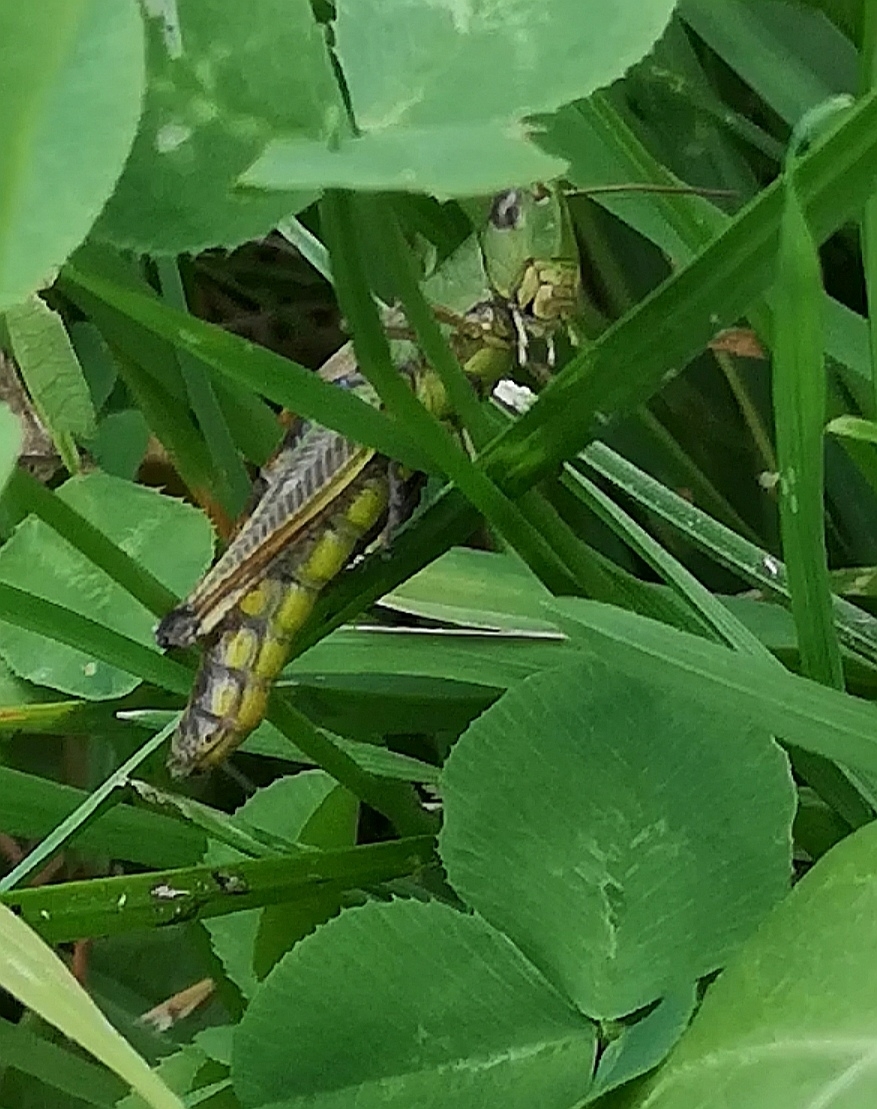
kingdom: Animalia
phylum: Arthropoda
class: Insecta
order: Orthoptera
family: Acrididae
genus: Pseudochorthippus
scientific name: Pseudochorthippus parallelus
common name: Meadow grasshopper
